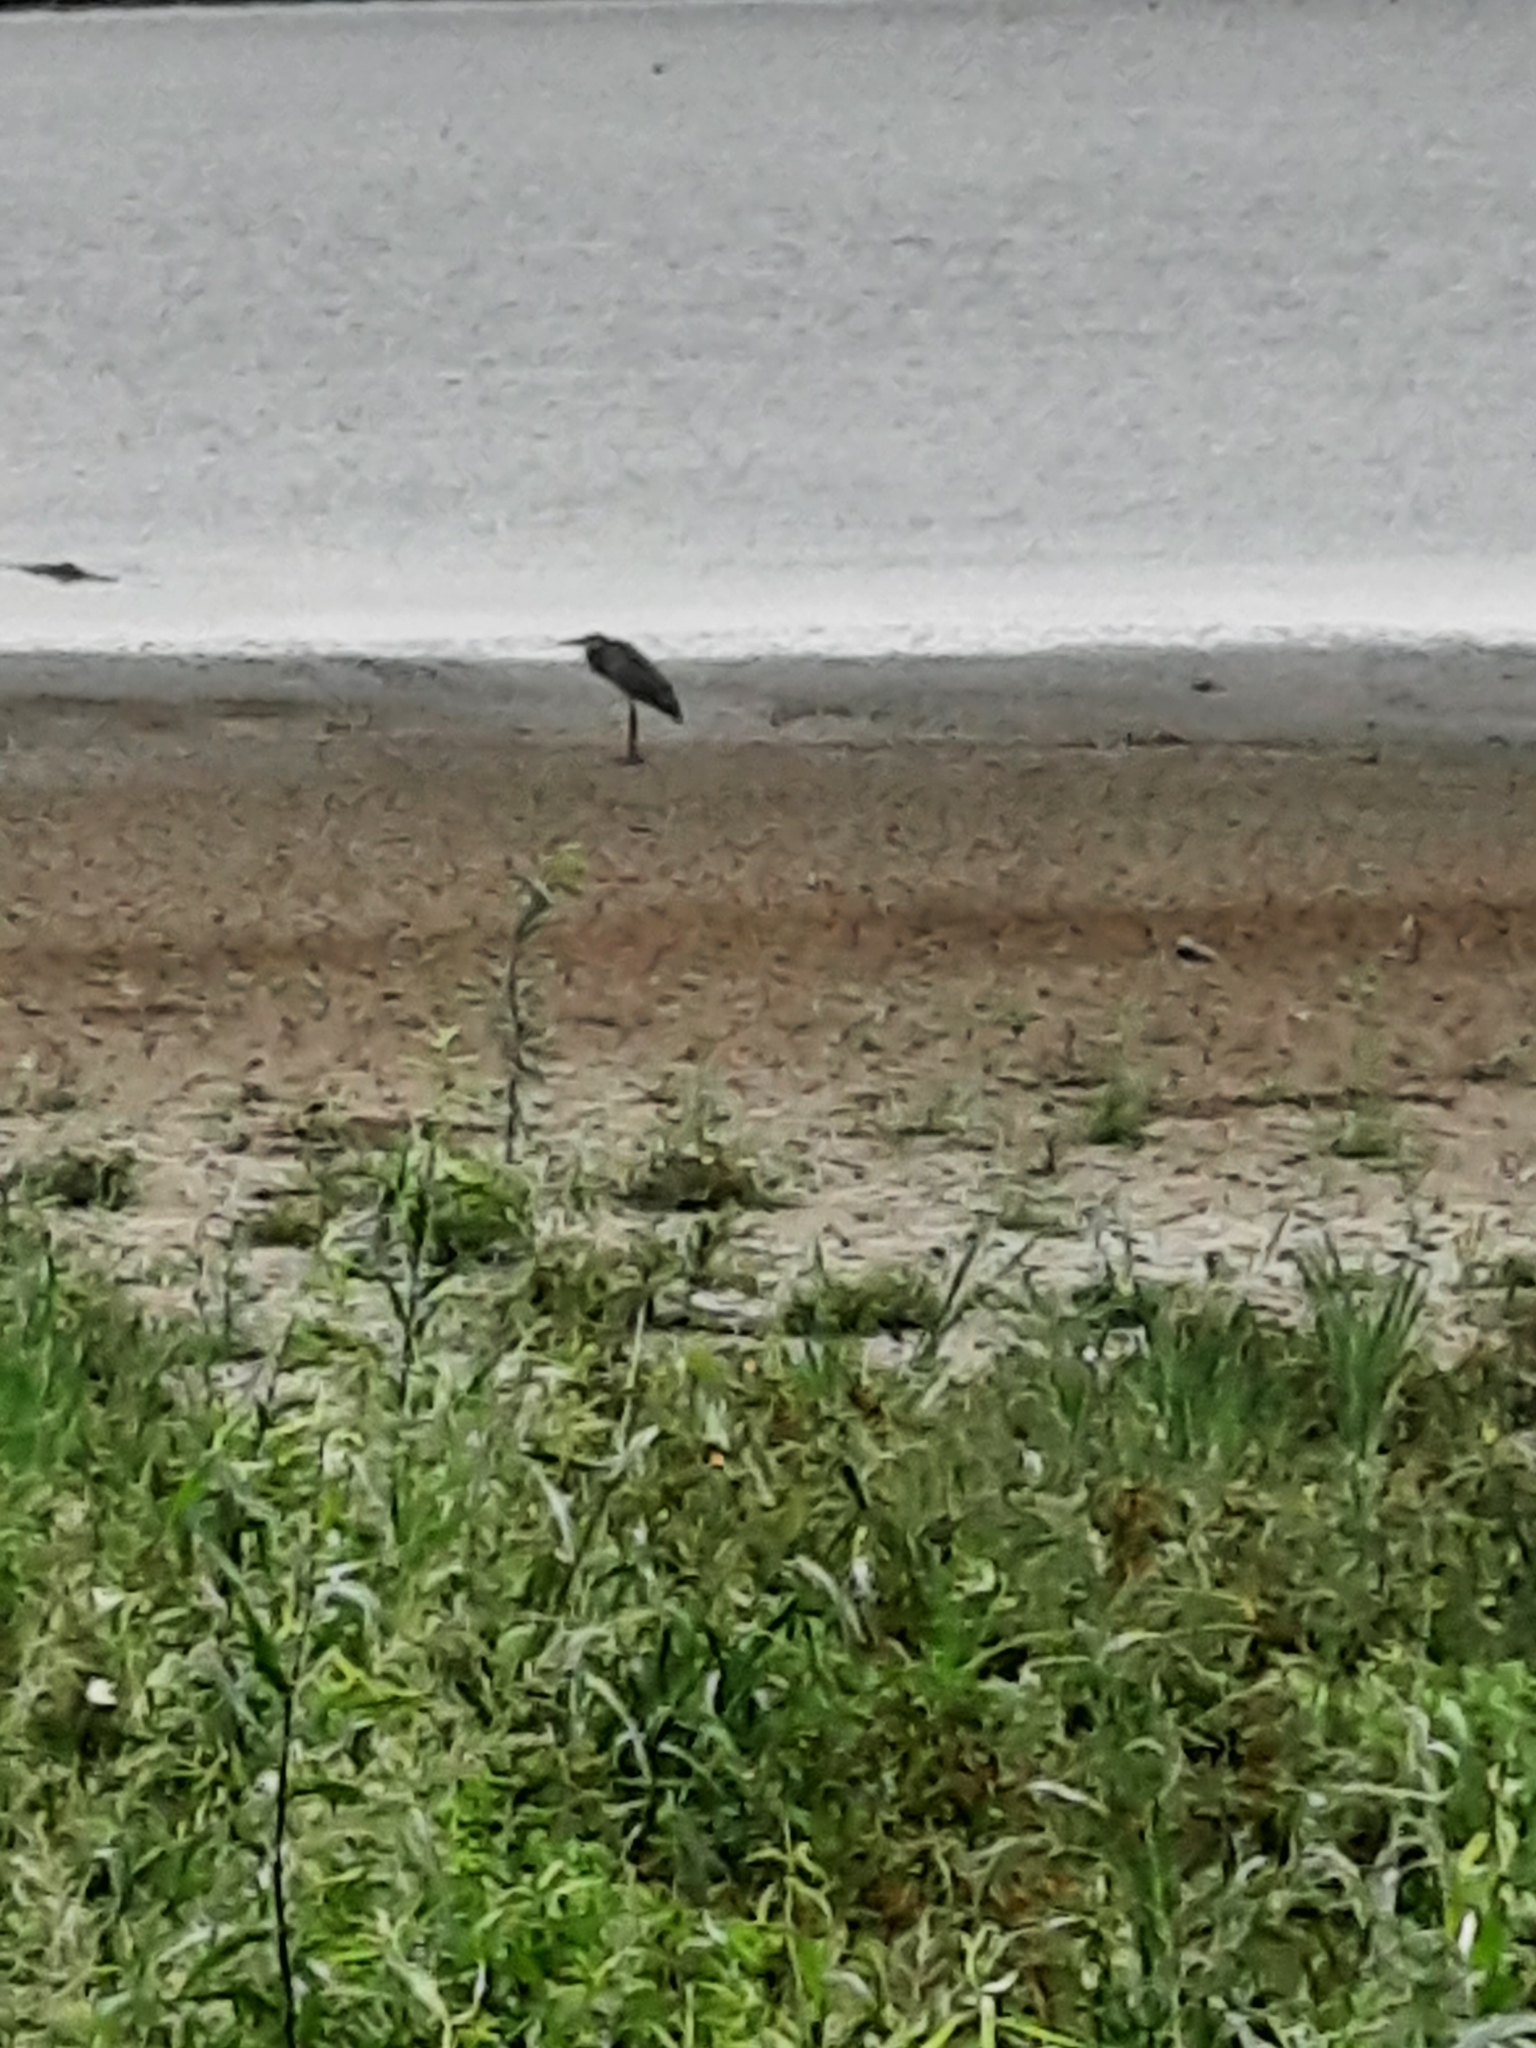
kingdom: Animalia
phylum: Chordata
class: Aves
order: Pelecaniformes
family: Ardeidae
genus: Ardea
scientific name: Ardea herodias
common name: Great blue heron
